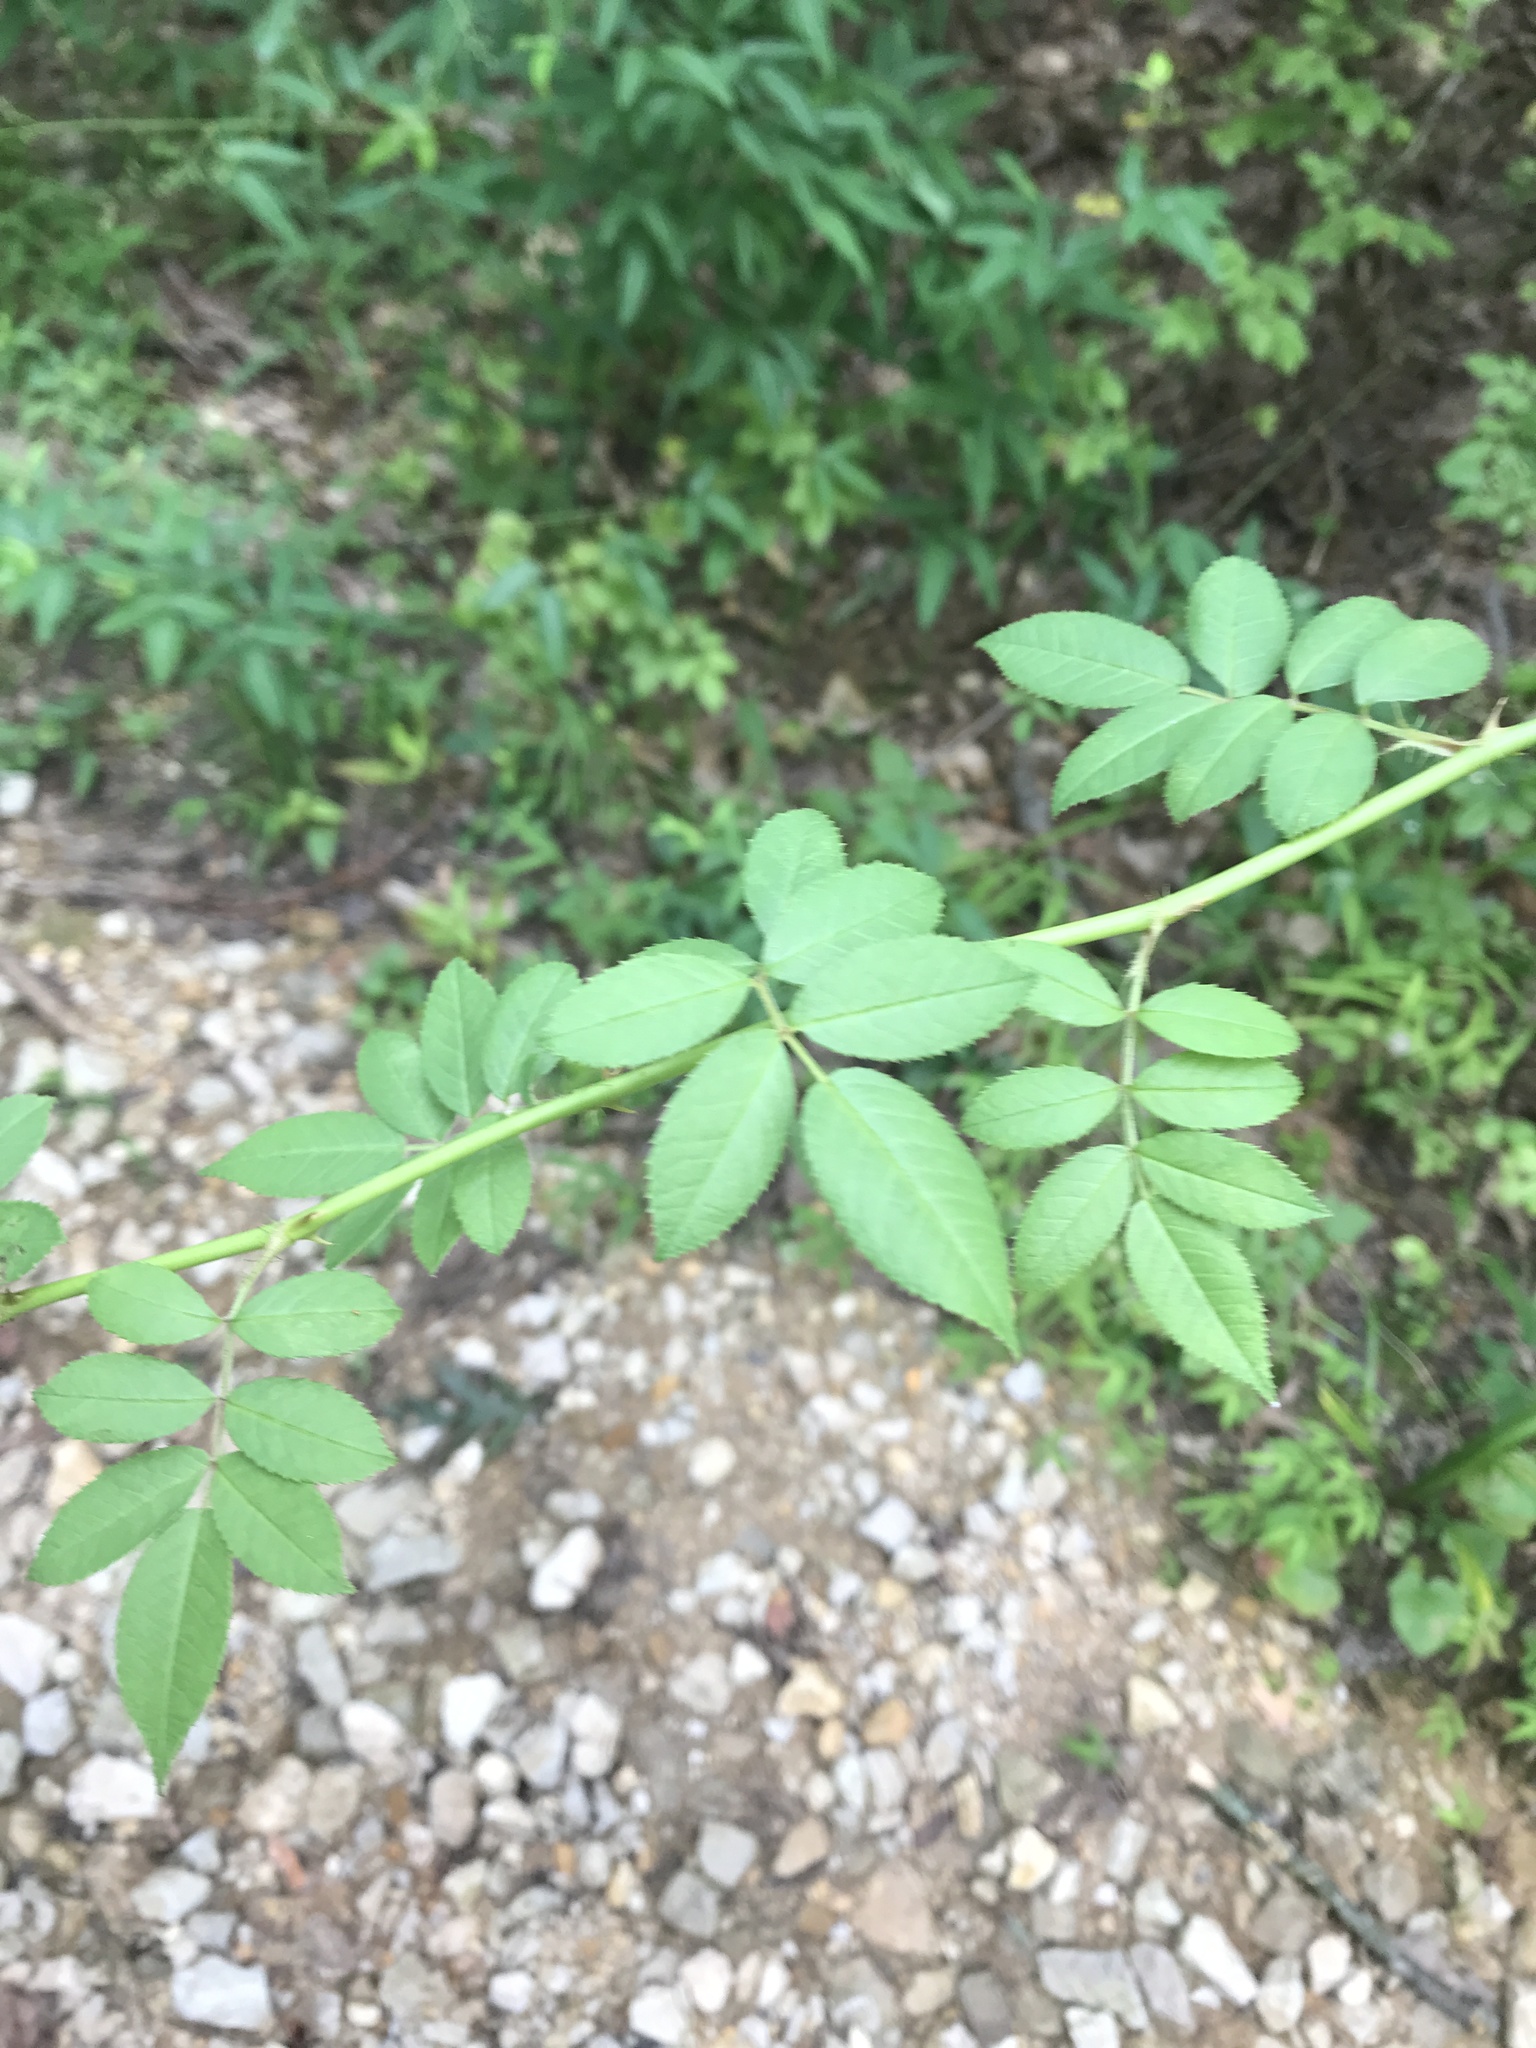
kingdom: Plantae
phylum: Tracheophyta
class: Magnoliopsida
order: Rosales
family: Rosaceae
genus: Rosa
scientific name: Rosa multiflora
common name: Multiflora rose
